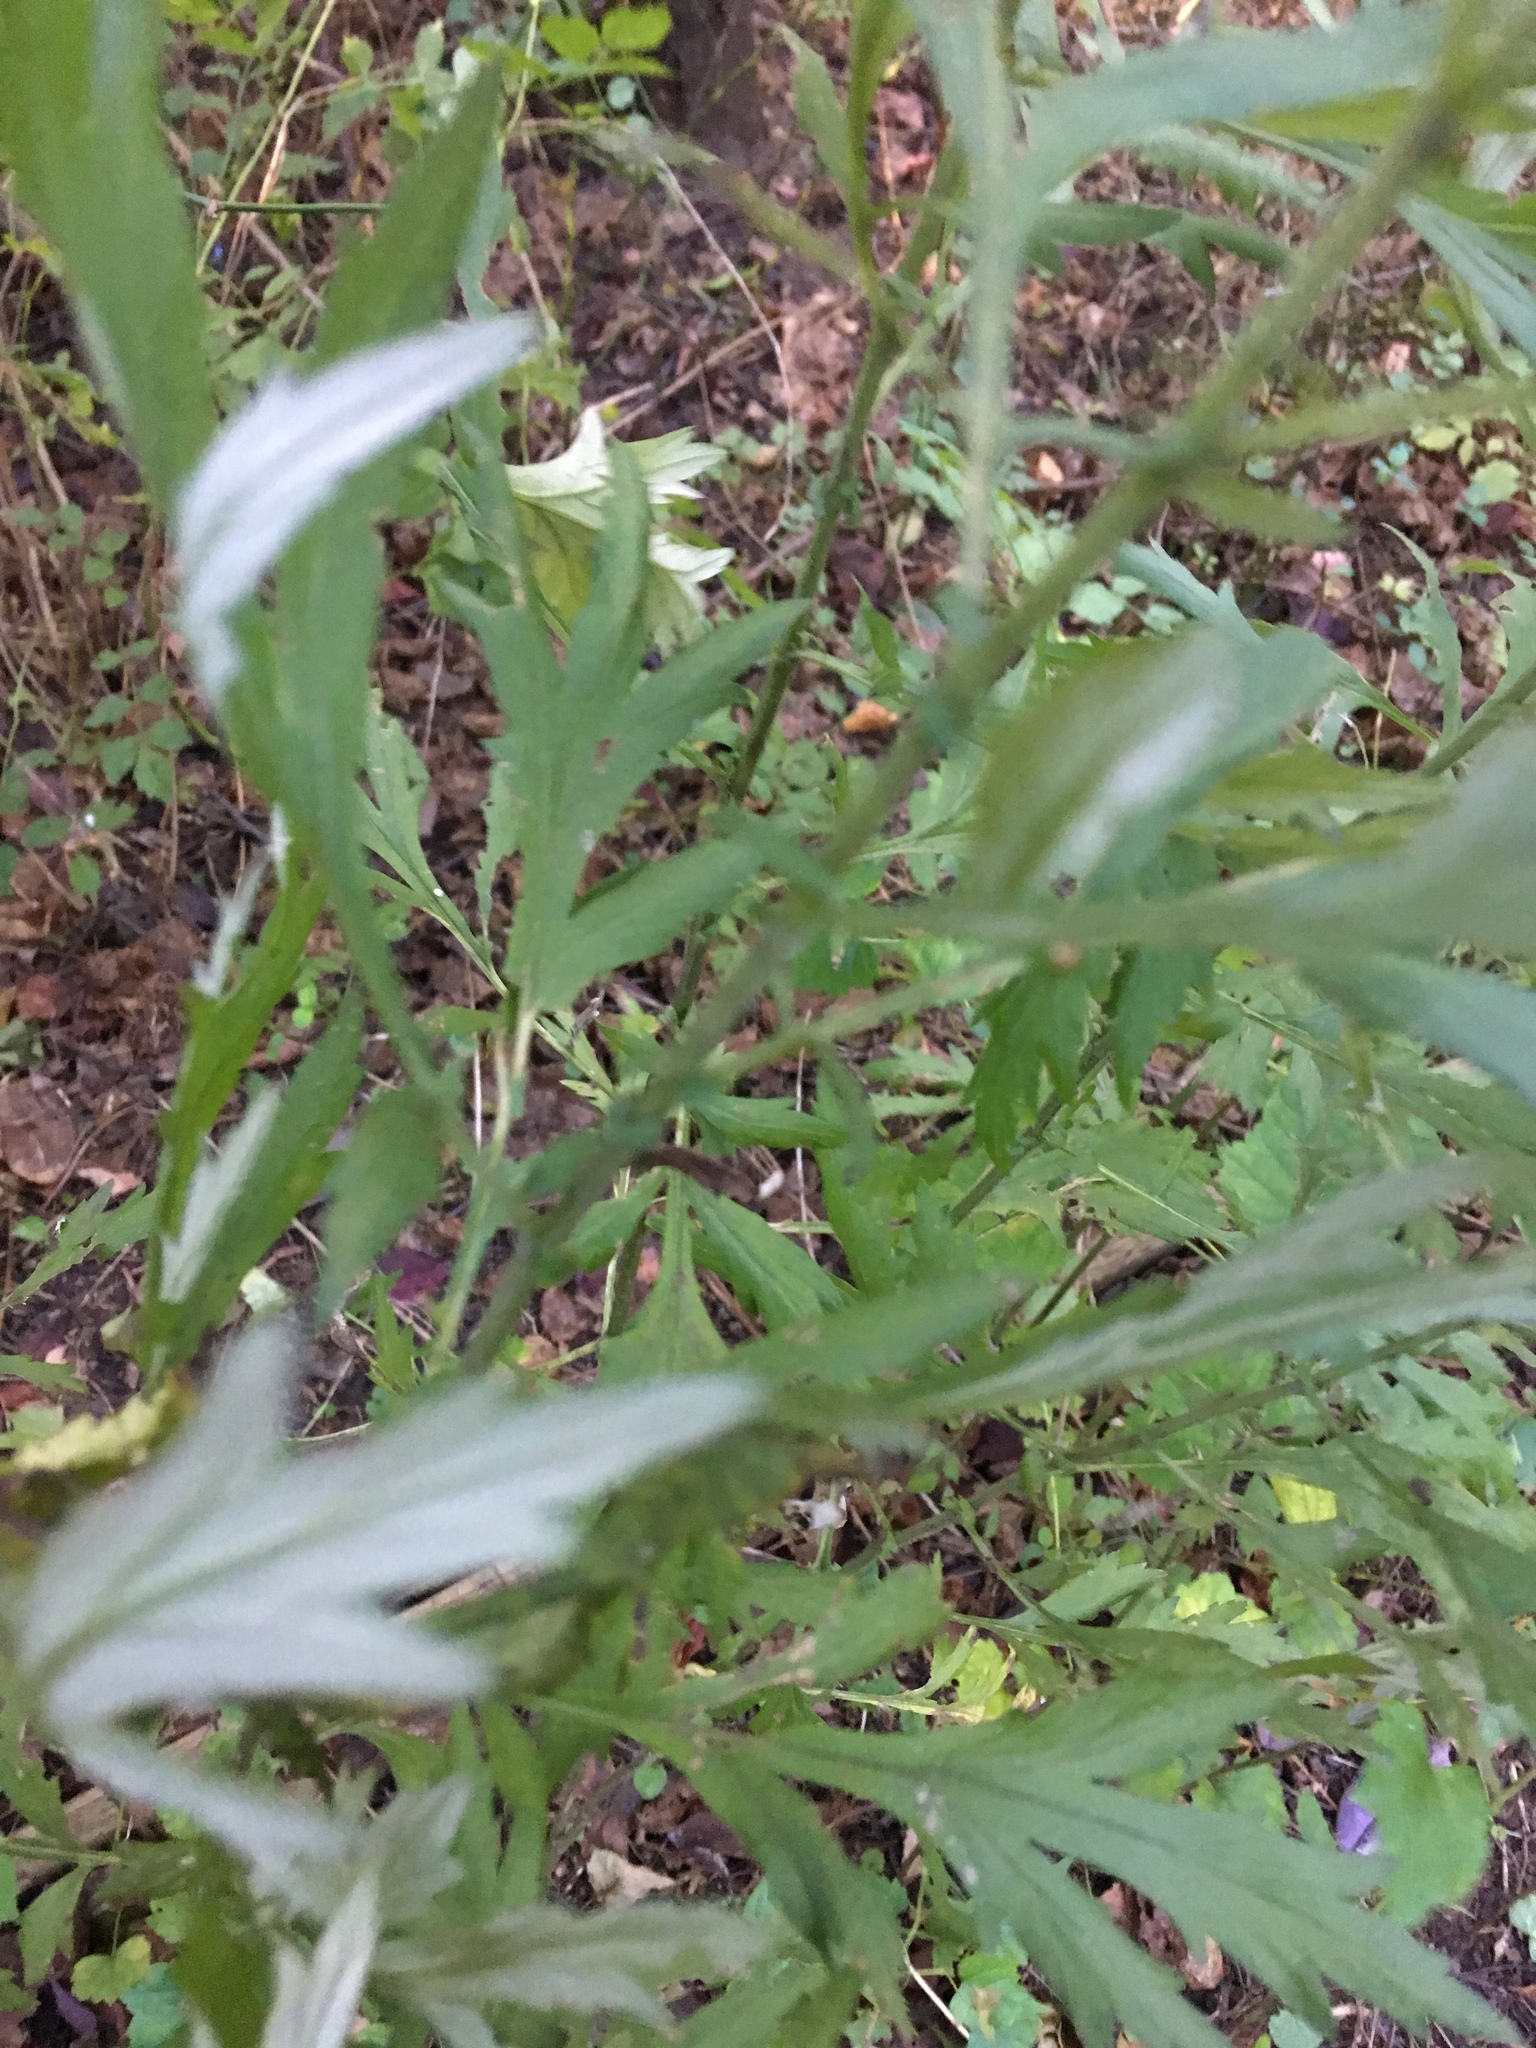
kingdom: Plantae
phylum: Tracheophyta
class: Magnoliopsida
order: Asterales
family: Asteraceae
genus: Artemisia
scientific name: Artemisia vulgaris
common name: Mugwort
